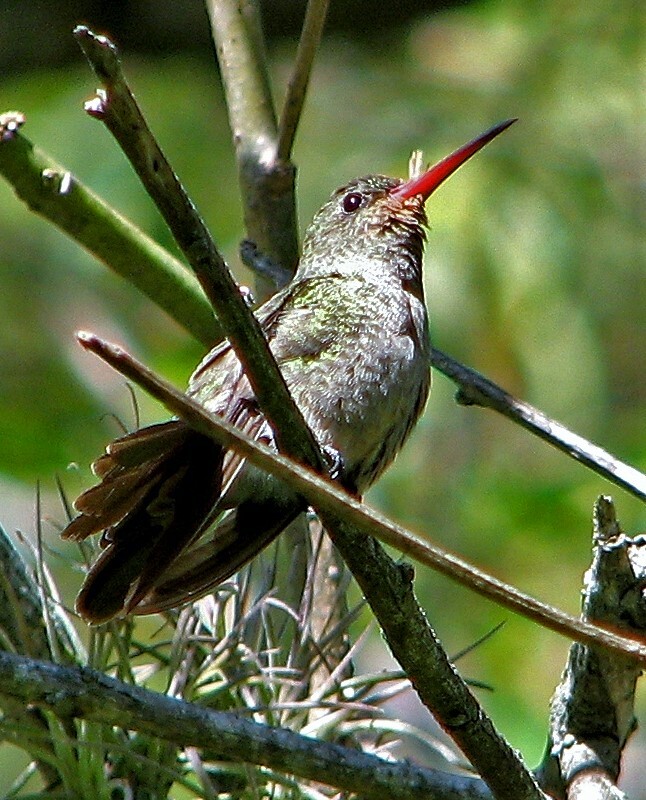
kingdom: Animalia
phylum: Chordata
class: Aves
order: Apodiformes
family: Trochilidae
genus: Hylocharis
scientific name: Hylocharis chrysura
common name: Gilded sapphire
